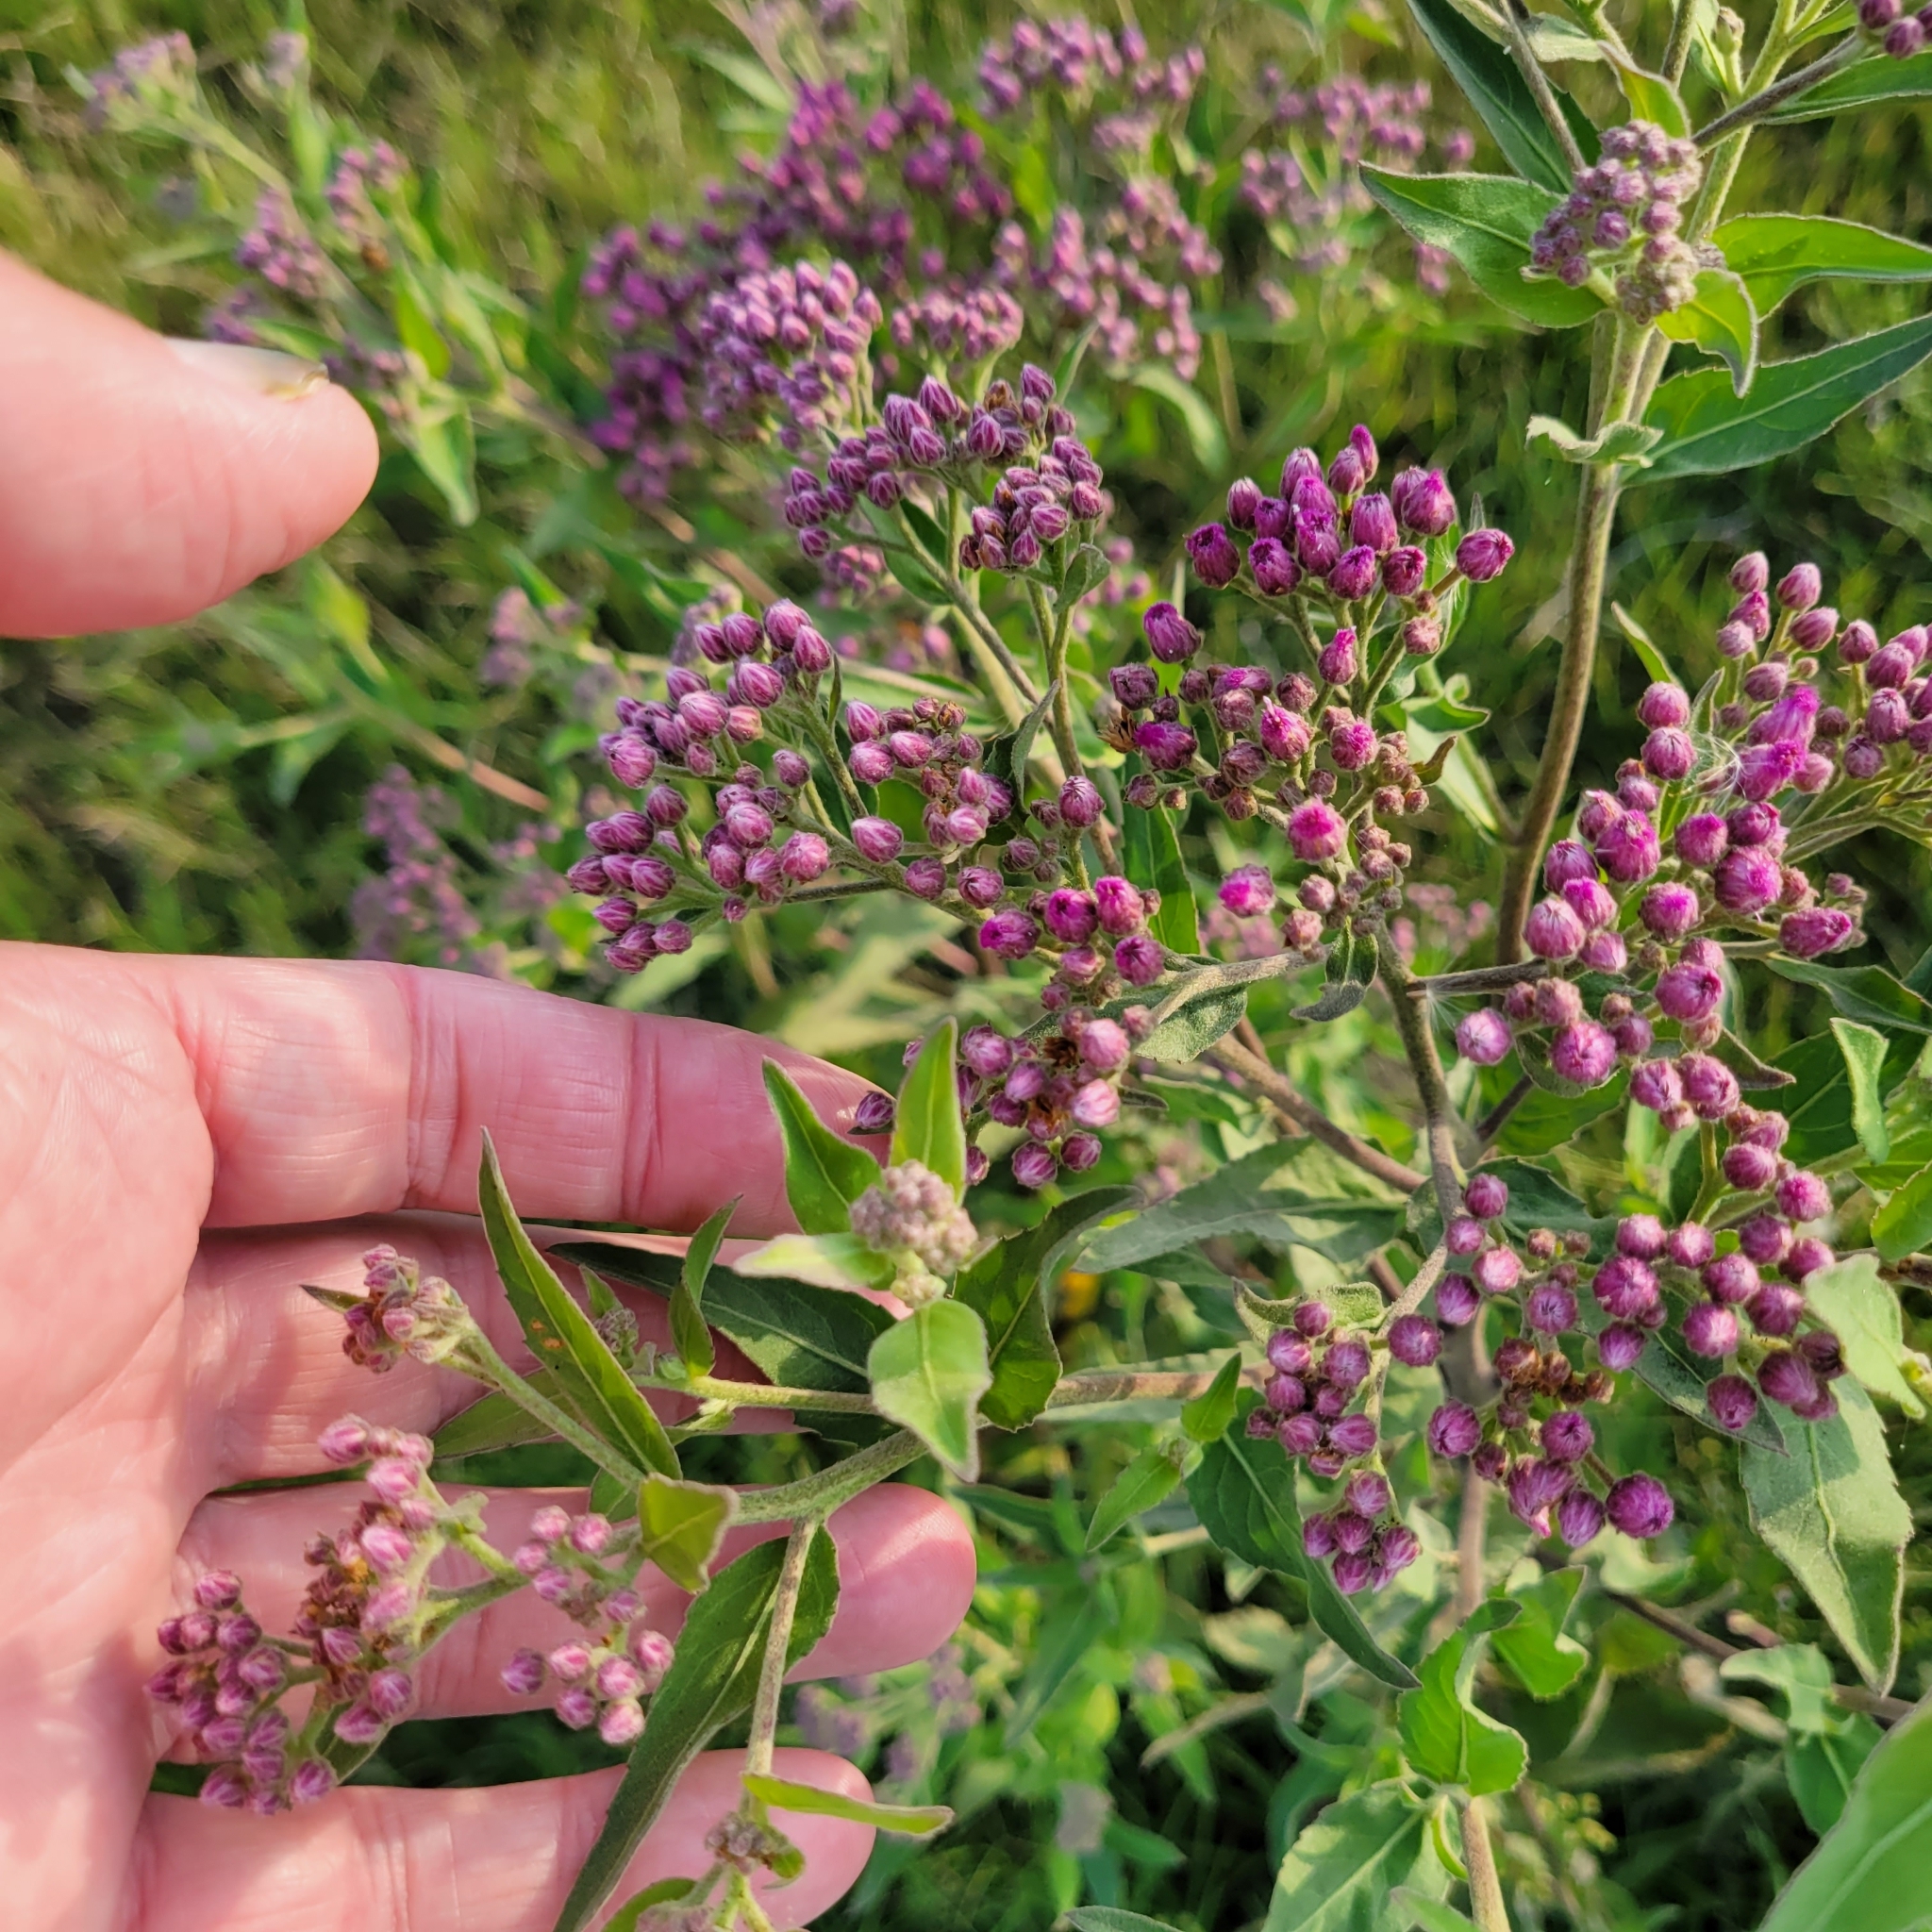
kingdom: Plantae
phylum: Tracheophyta
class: Magnoliopsida
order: Asterales
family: Asteraceae
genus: Pluchea
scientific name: Pluchea odorata
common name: Saltmarsh fleabane
